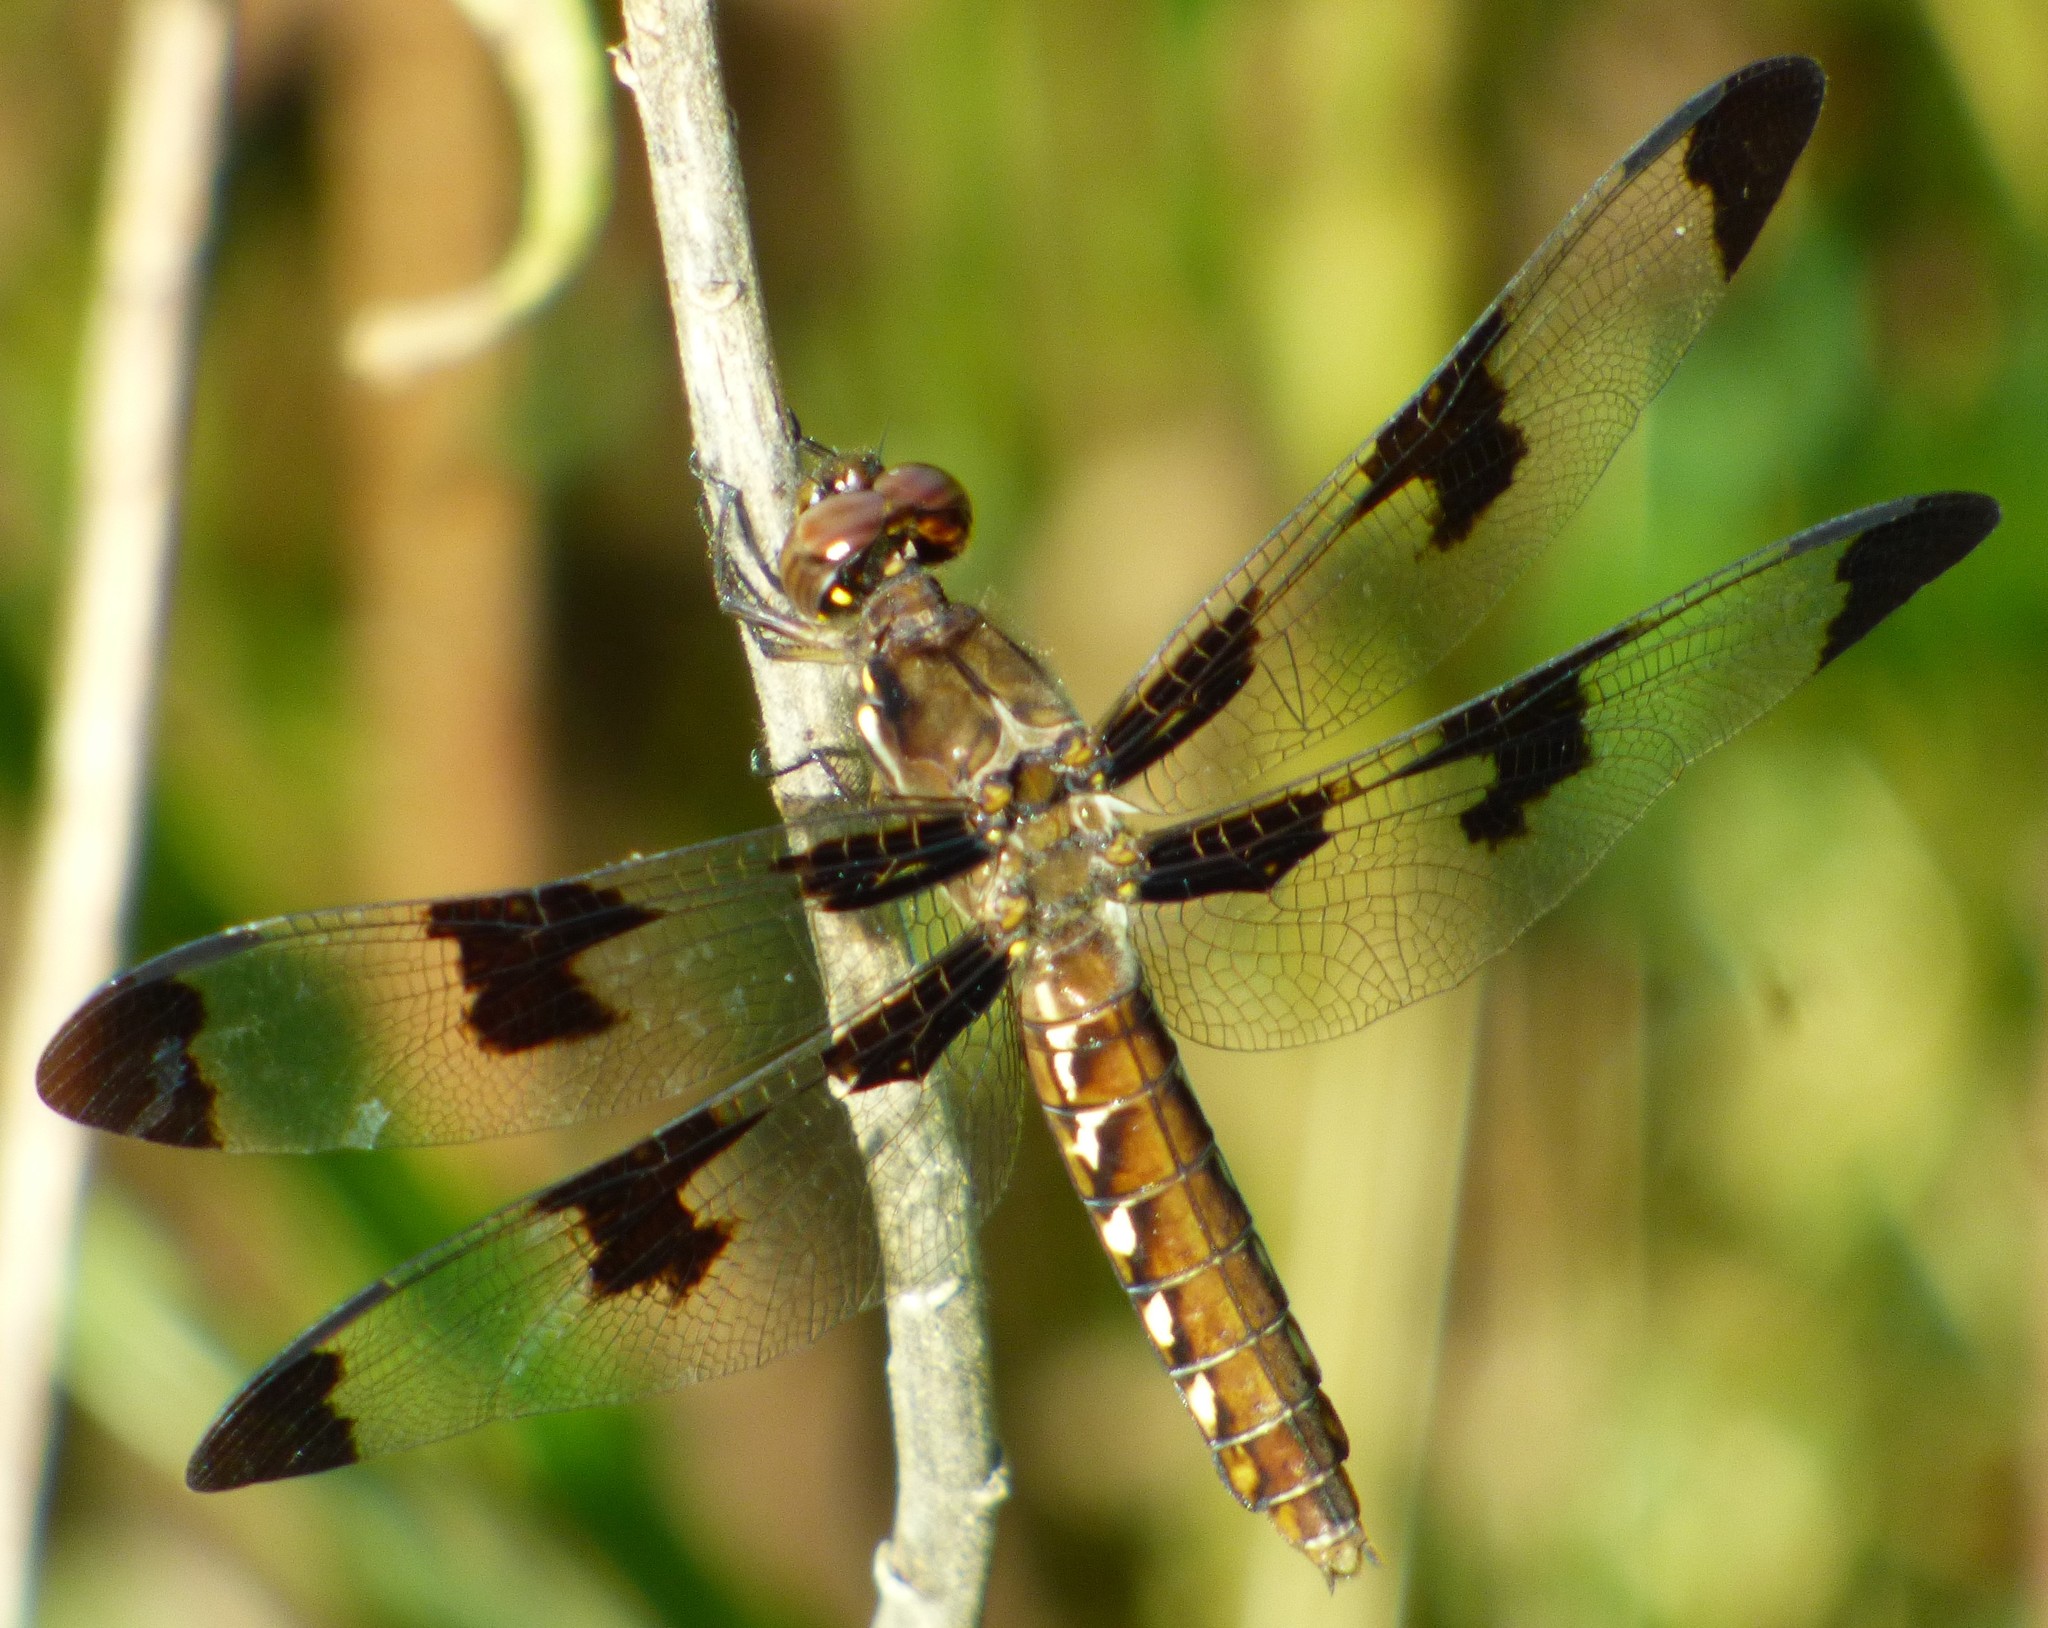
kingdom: Animalia
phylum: Arthropoda
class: Insecta
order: Odonata
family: Libellulidae
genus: Plathemis
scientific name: Plathemis lydia
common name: Common whitetail
